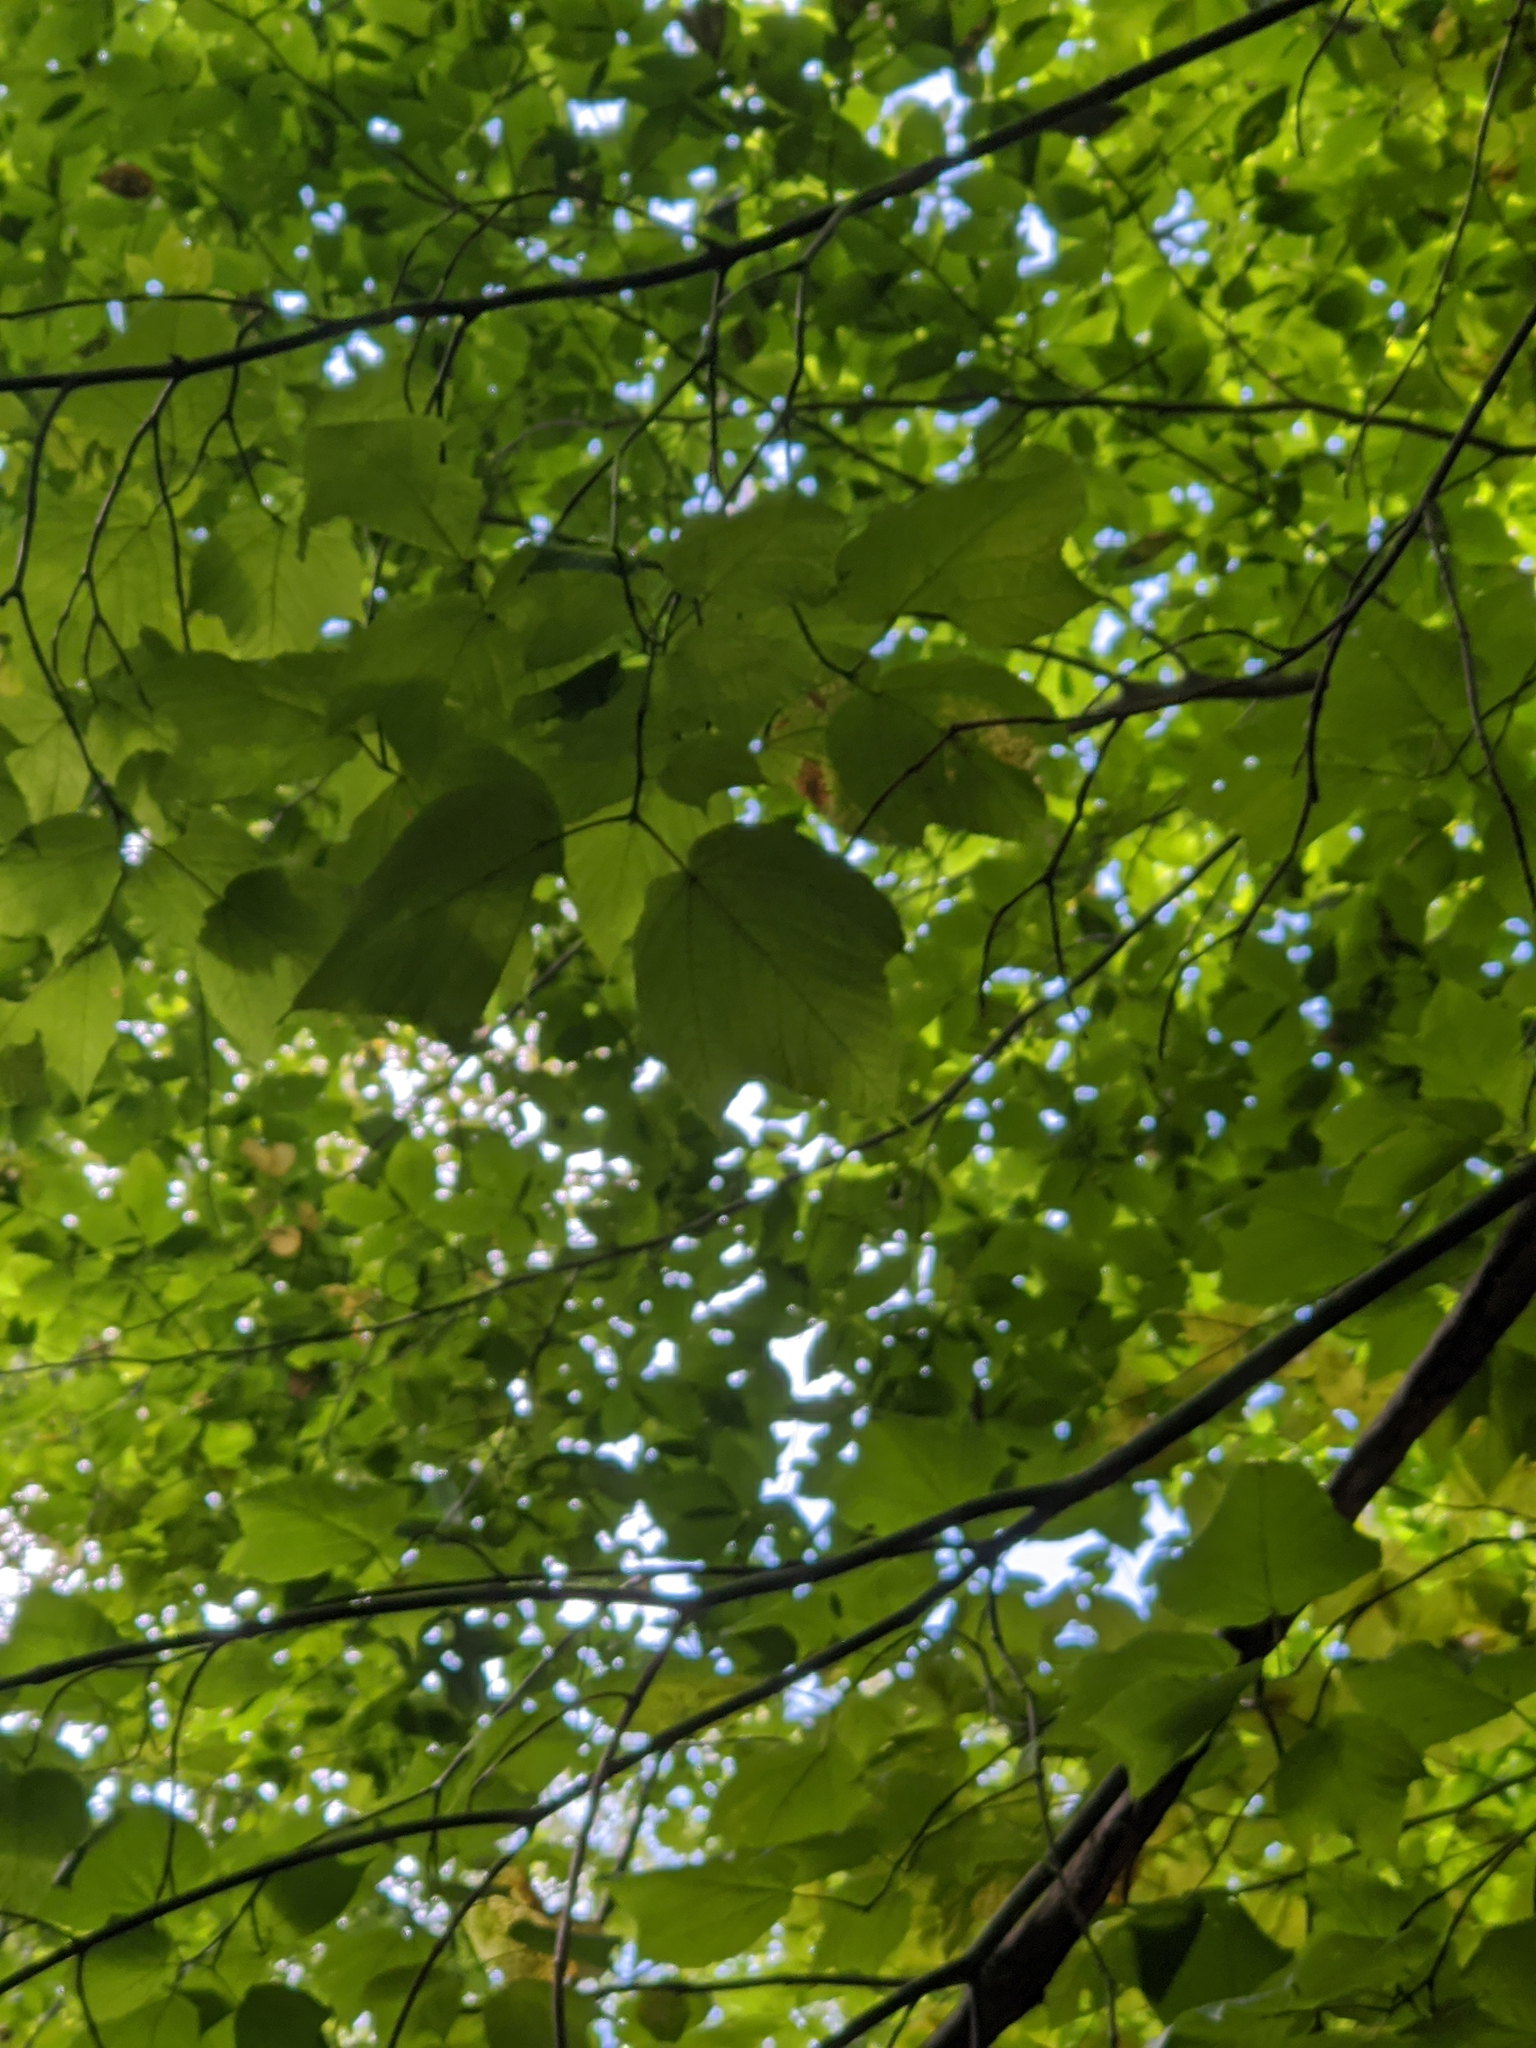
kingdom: Plantae
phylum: Tracheophyta
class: Magnoliopsida
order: Sapindales
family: Sapindaceae
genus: Acer
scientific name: Acer pensylvanicum
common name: Moosewood
